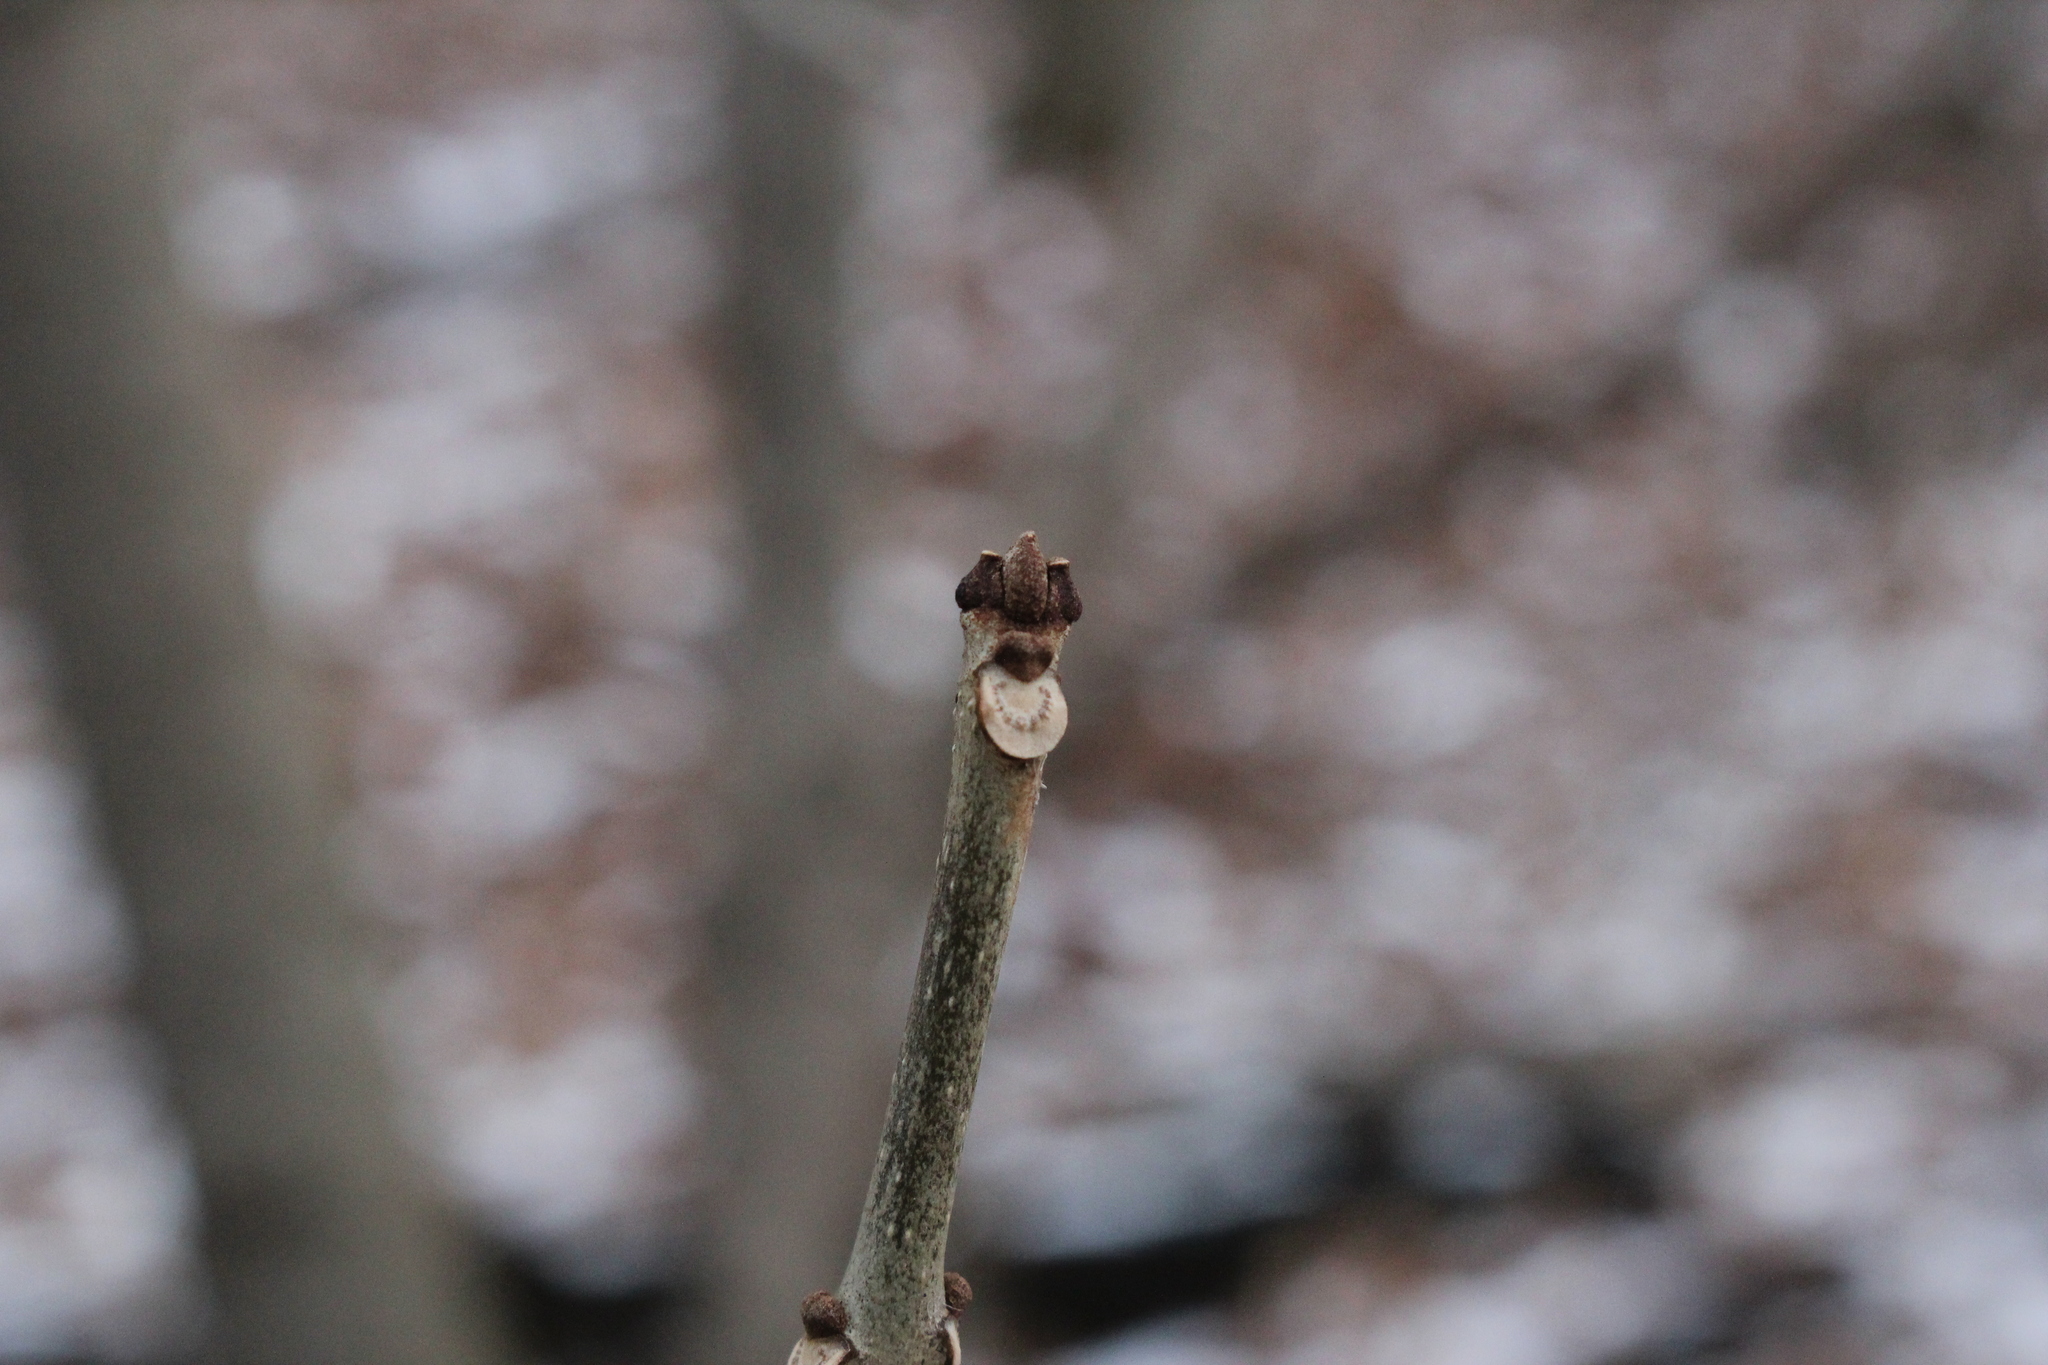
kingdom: Plantae
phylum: Tracheophyta
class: Magnoliopsida
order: Lamiales
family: Oleaceae
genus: Fraxinus
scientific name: Fraxinus pennsylvanica
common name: Green ash
